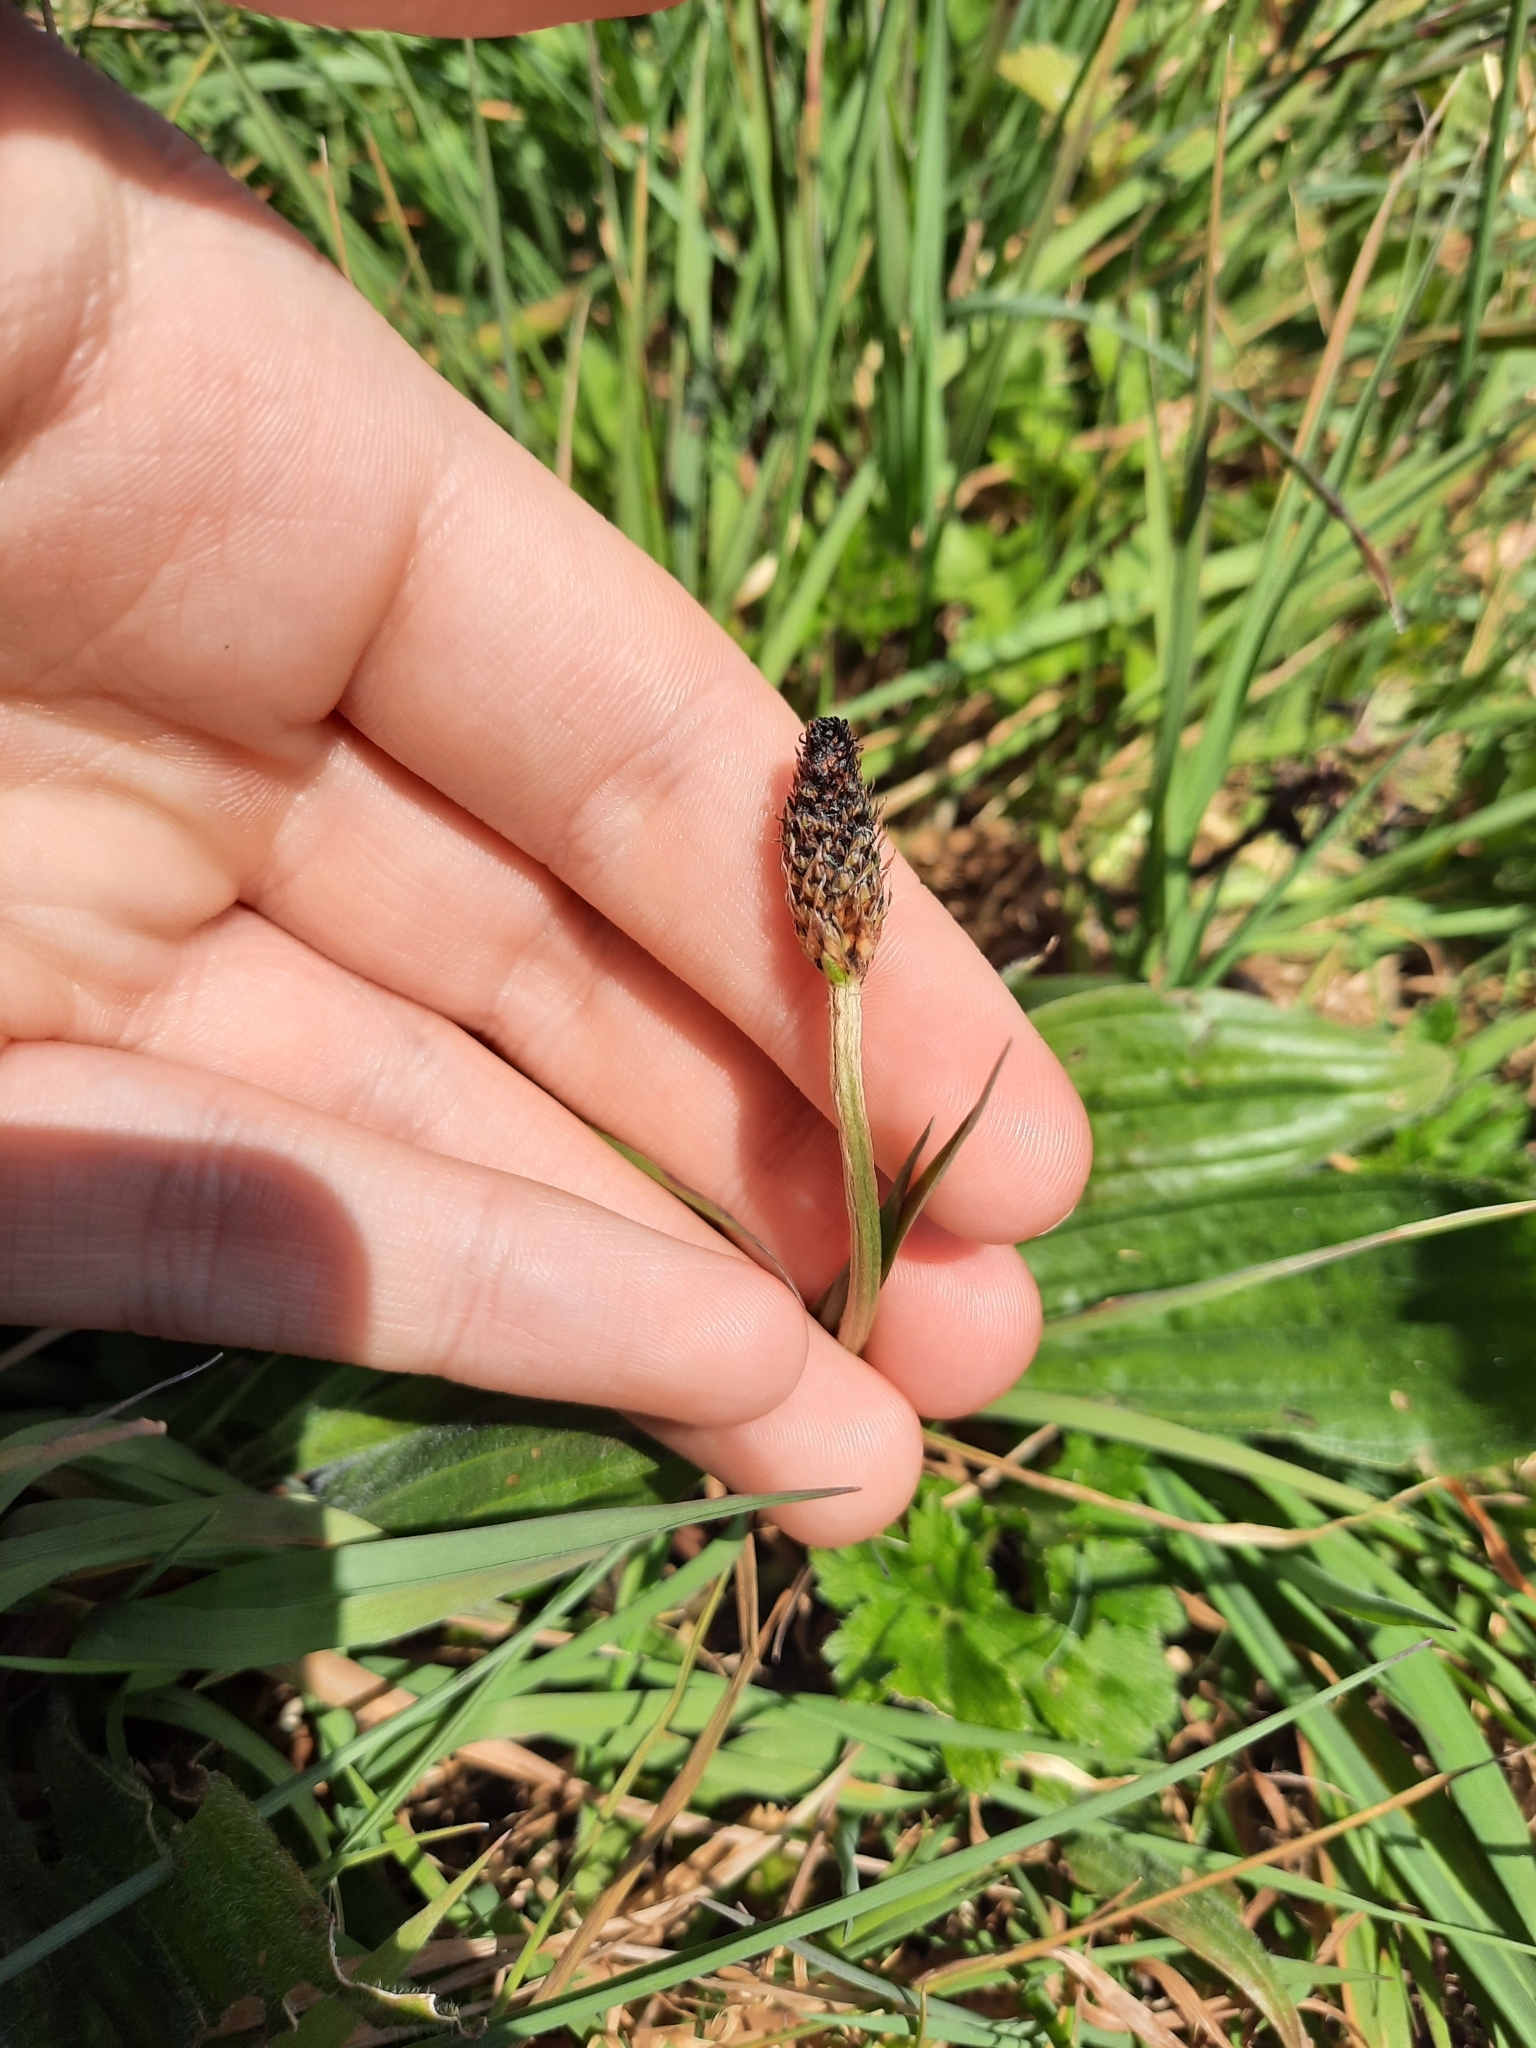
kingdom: Plantae
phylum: Tracheophyta
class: Magnoliopsida
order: Lamiales
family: Plantaginaceae
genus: Plantago
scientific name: Plantago lanceolata
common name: Ribwort plantain
